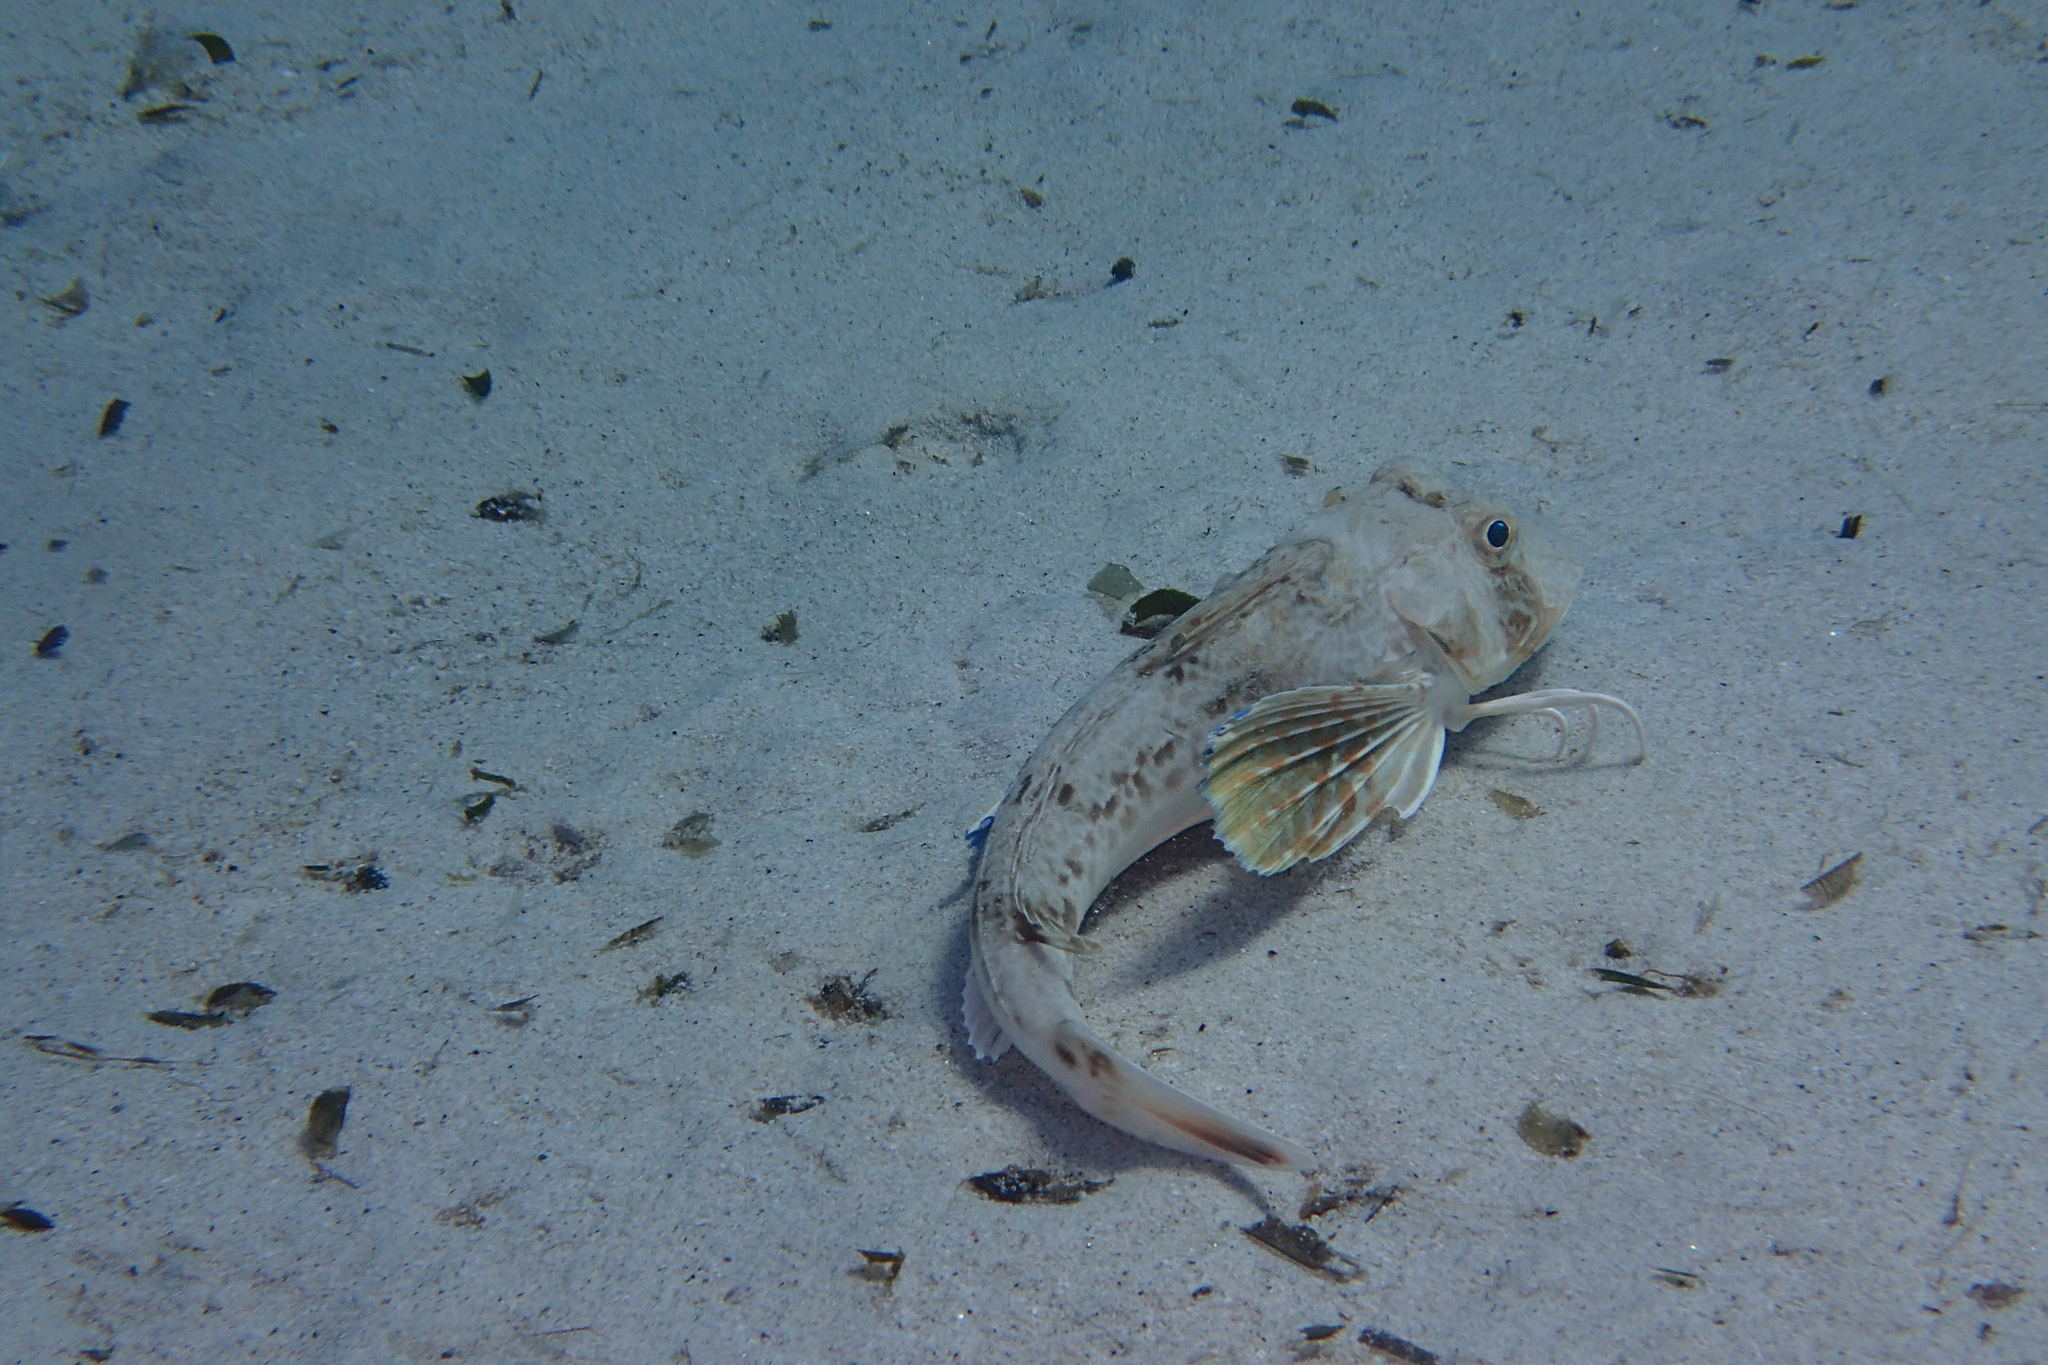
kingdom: Animalia
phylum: Chordata
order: Scorpaeniformes
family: Triglidae
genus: Chelidonichthys
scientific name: Chelidonichthys lucerna
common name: Tub gurnard
